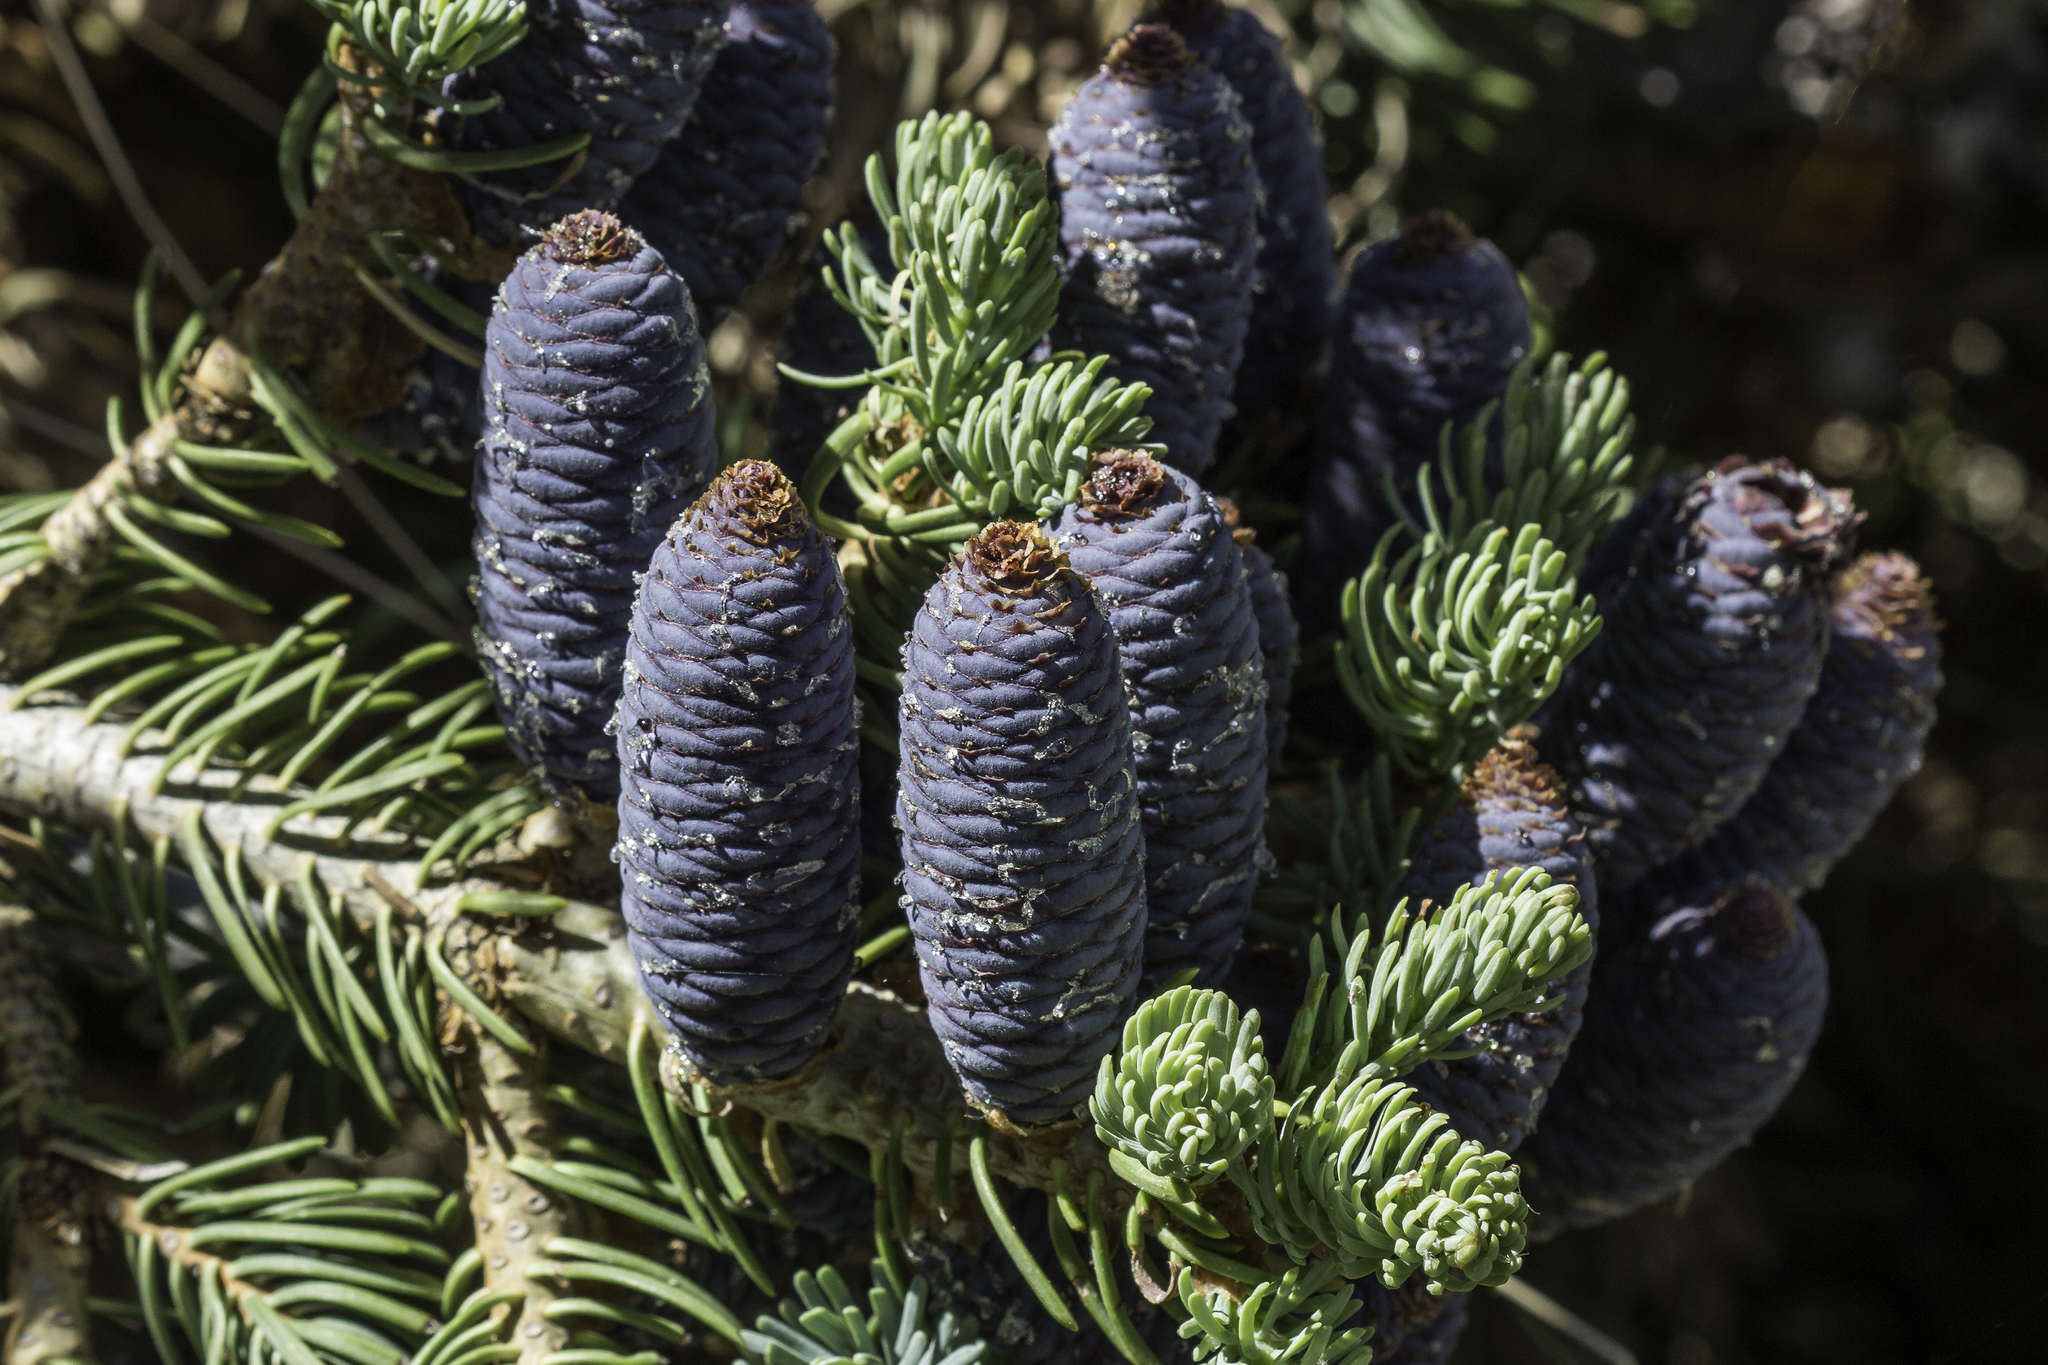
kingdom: Plantae
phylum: Tracheophyta
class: Pinopsida
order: Pinales
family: Pinaceae
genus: Abies
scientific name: Abies concolor
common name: Colorado fir
